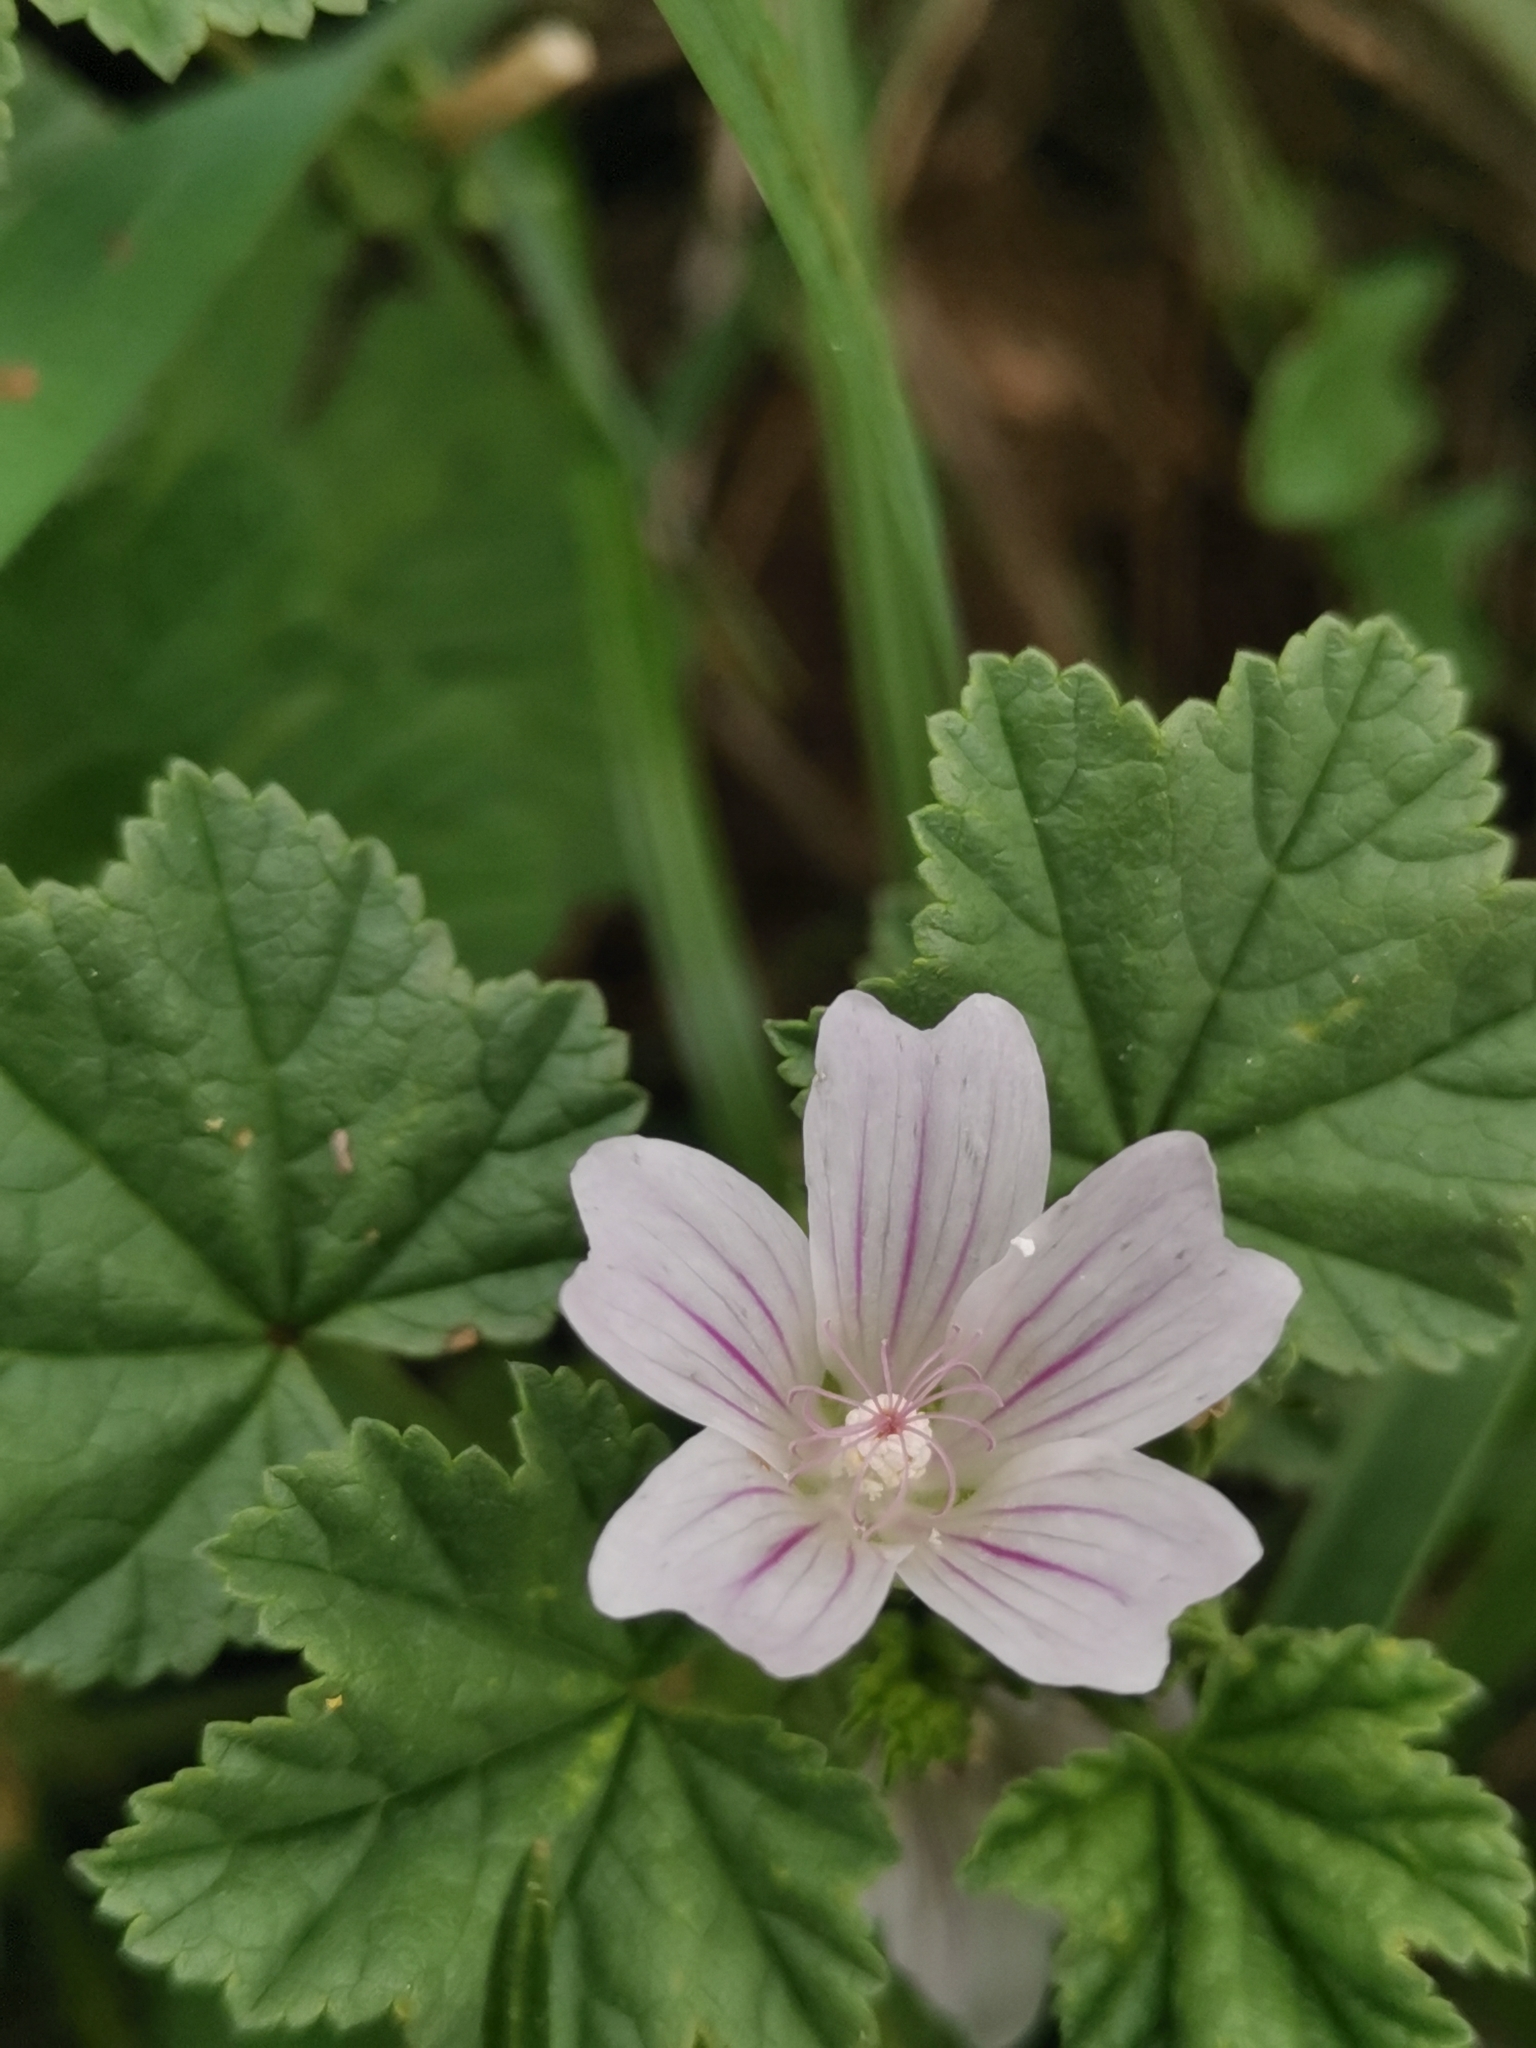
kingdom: Plantae
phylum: Tracheophyta
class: Magnoliopsida
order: Malvales
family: Malvaceae
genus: Malva
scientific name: Malva neglecta
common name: Common mallow
